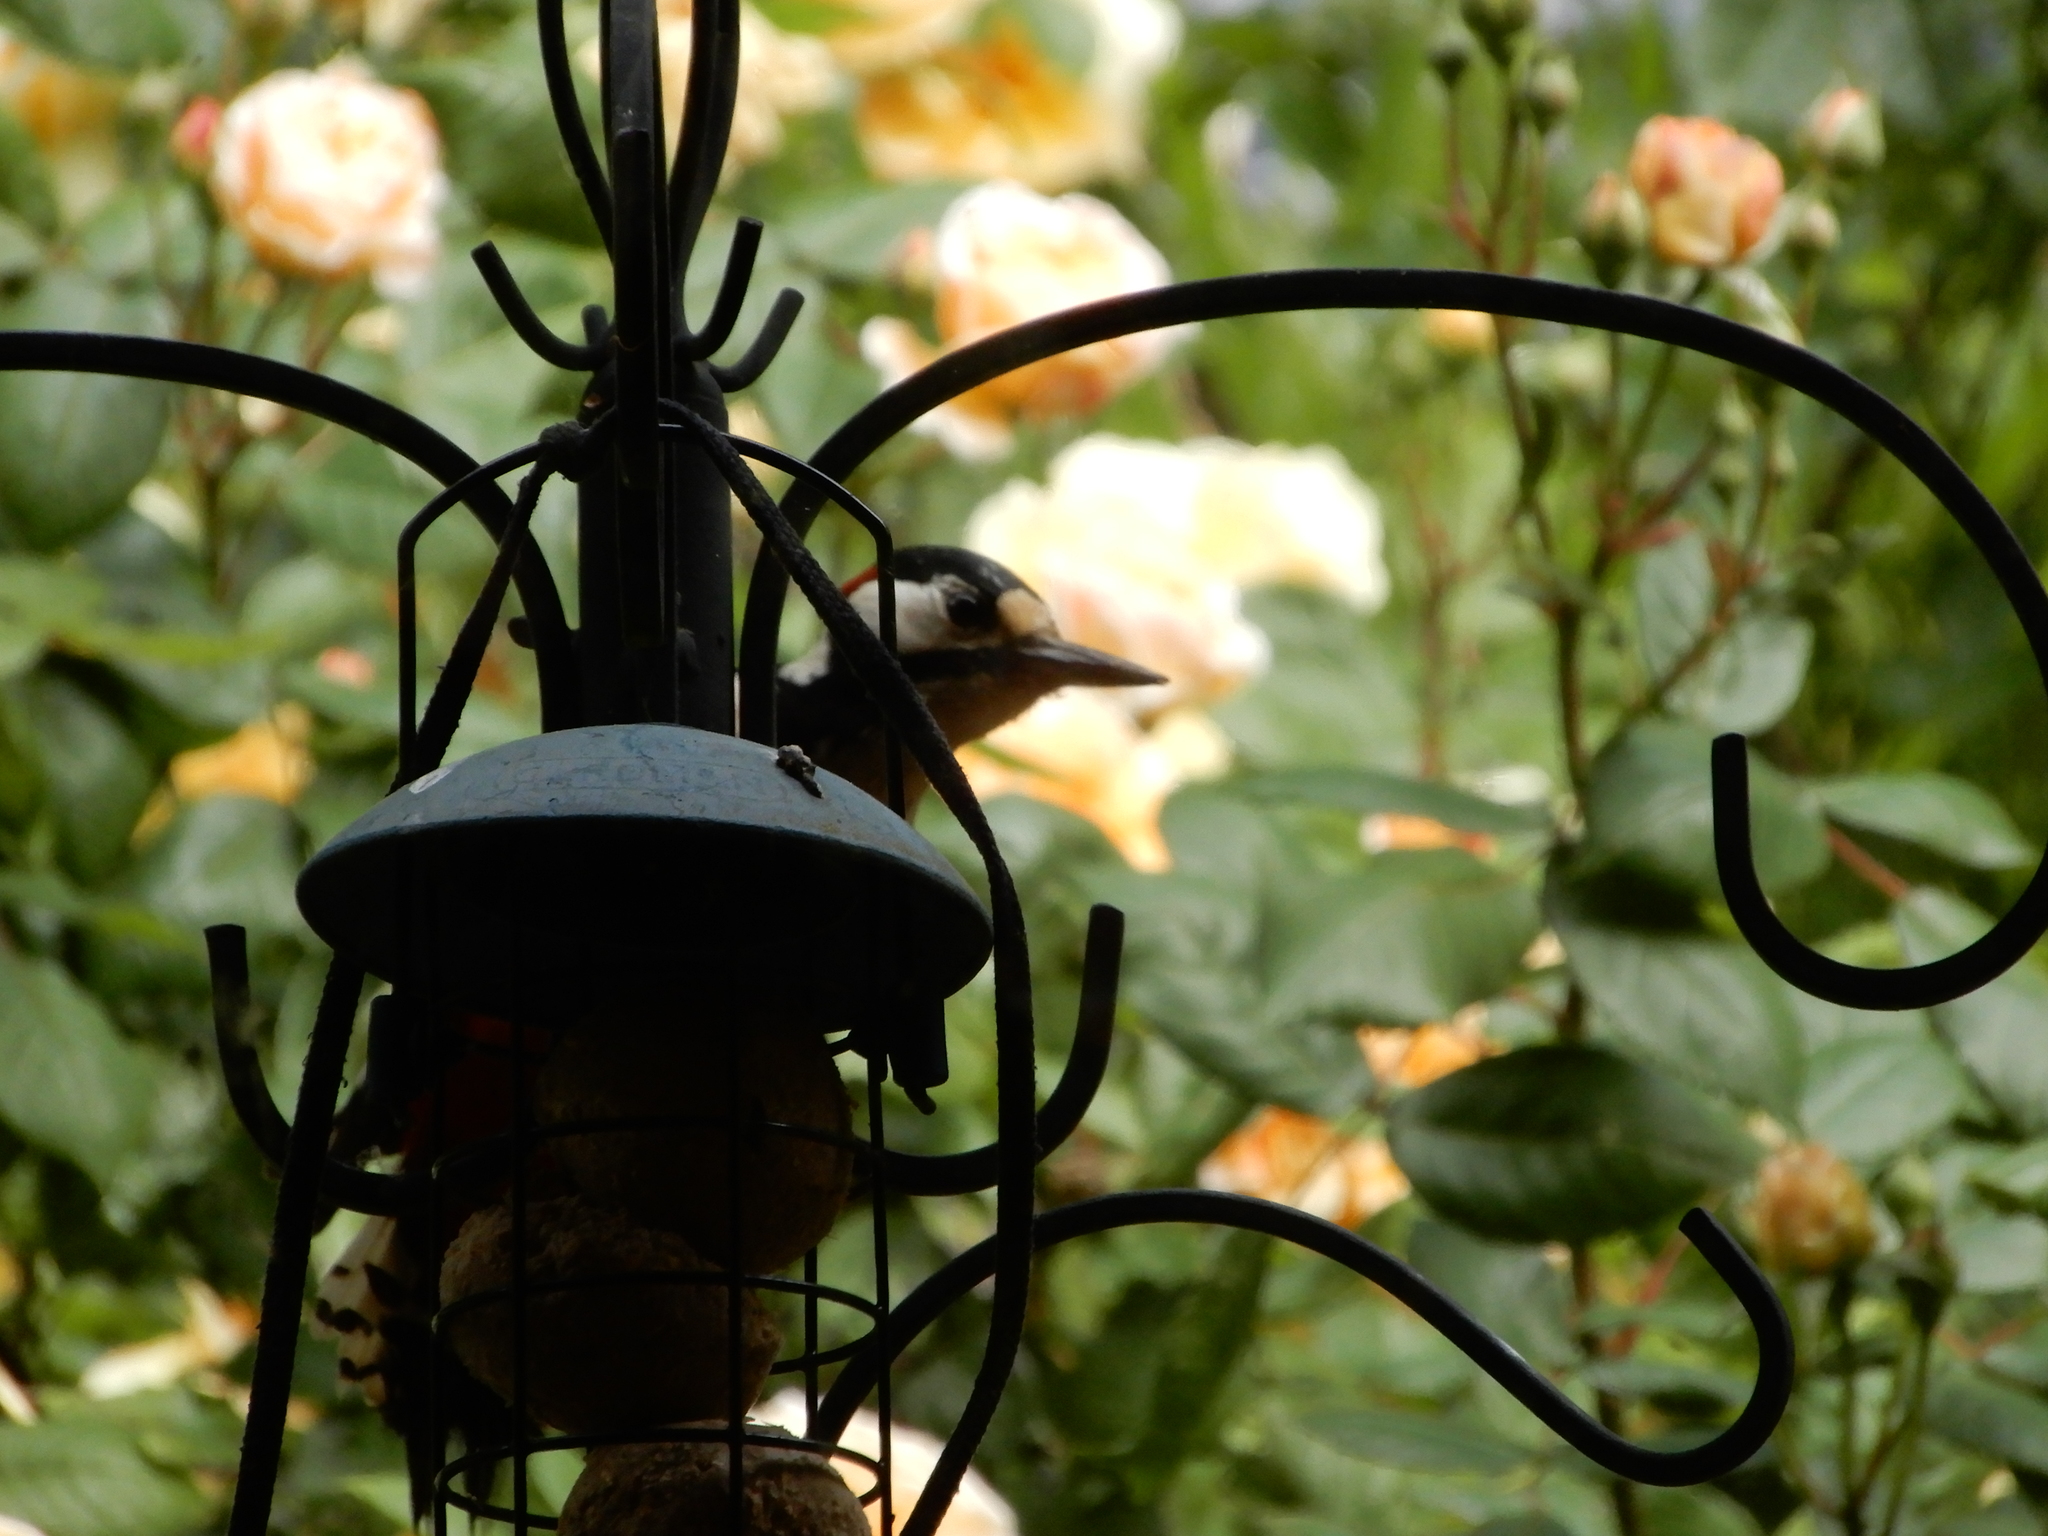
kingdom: Animalia
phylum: Chordata
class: Aves
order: Piciformes
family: Picidae
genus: Dendrocopos
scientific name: Dendrocopos major
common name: Great spotted woodpecker
